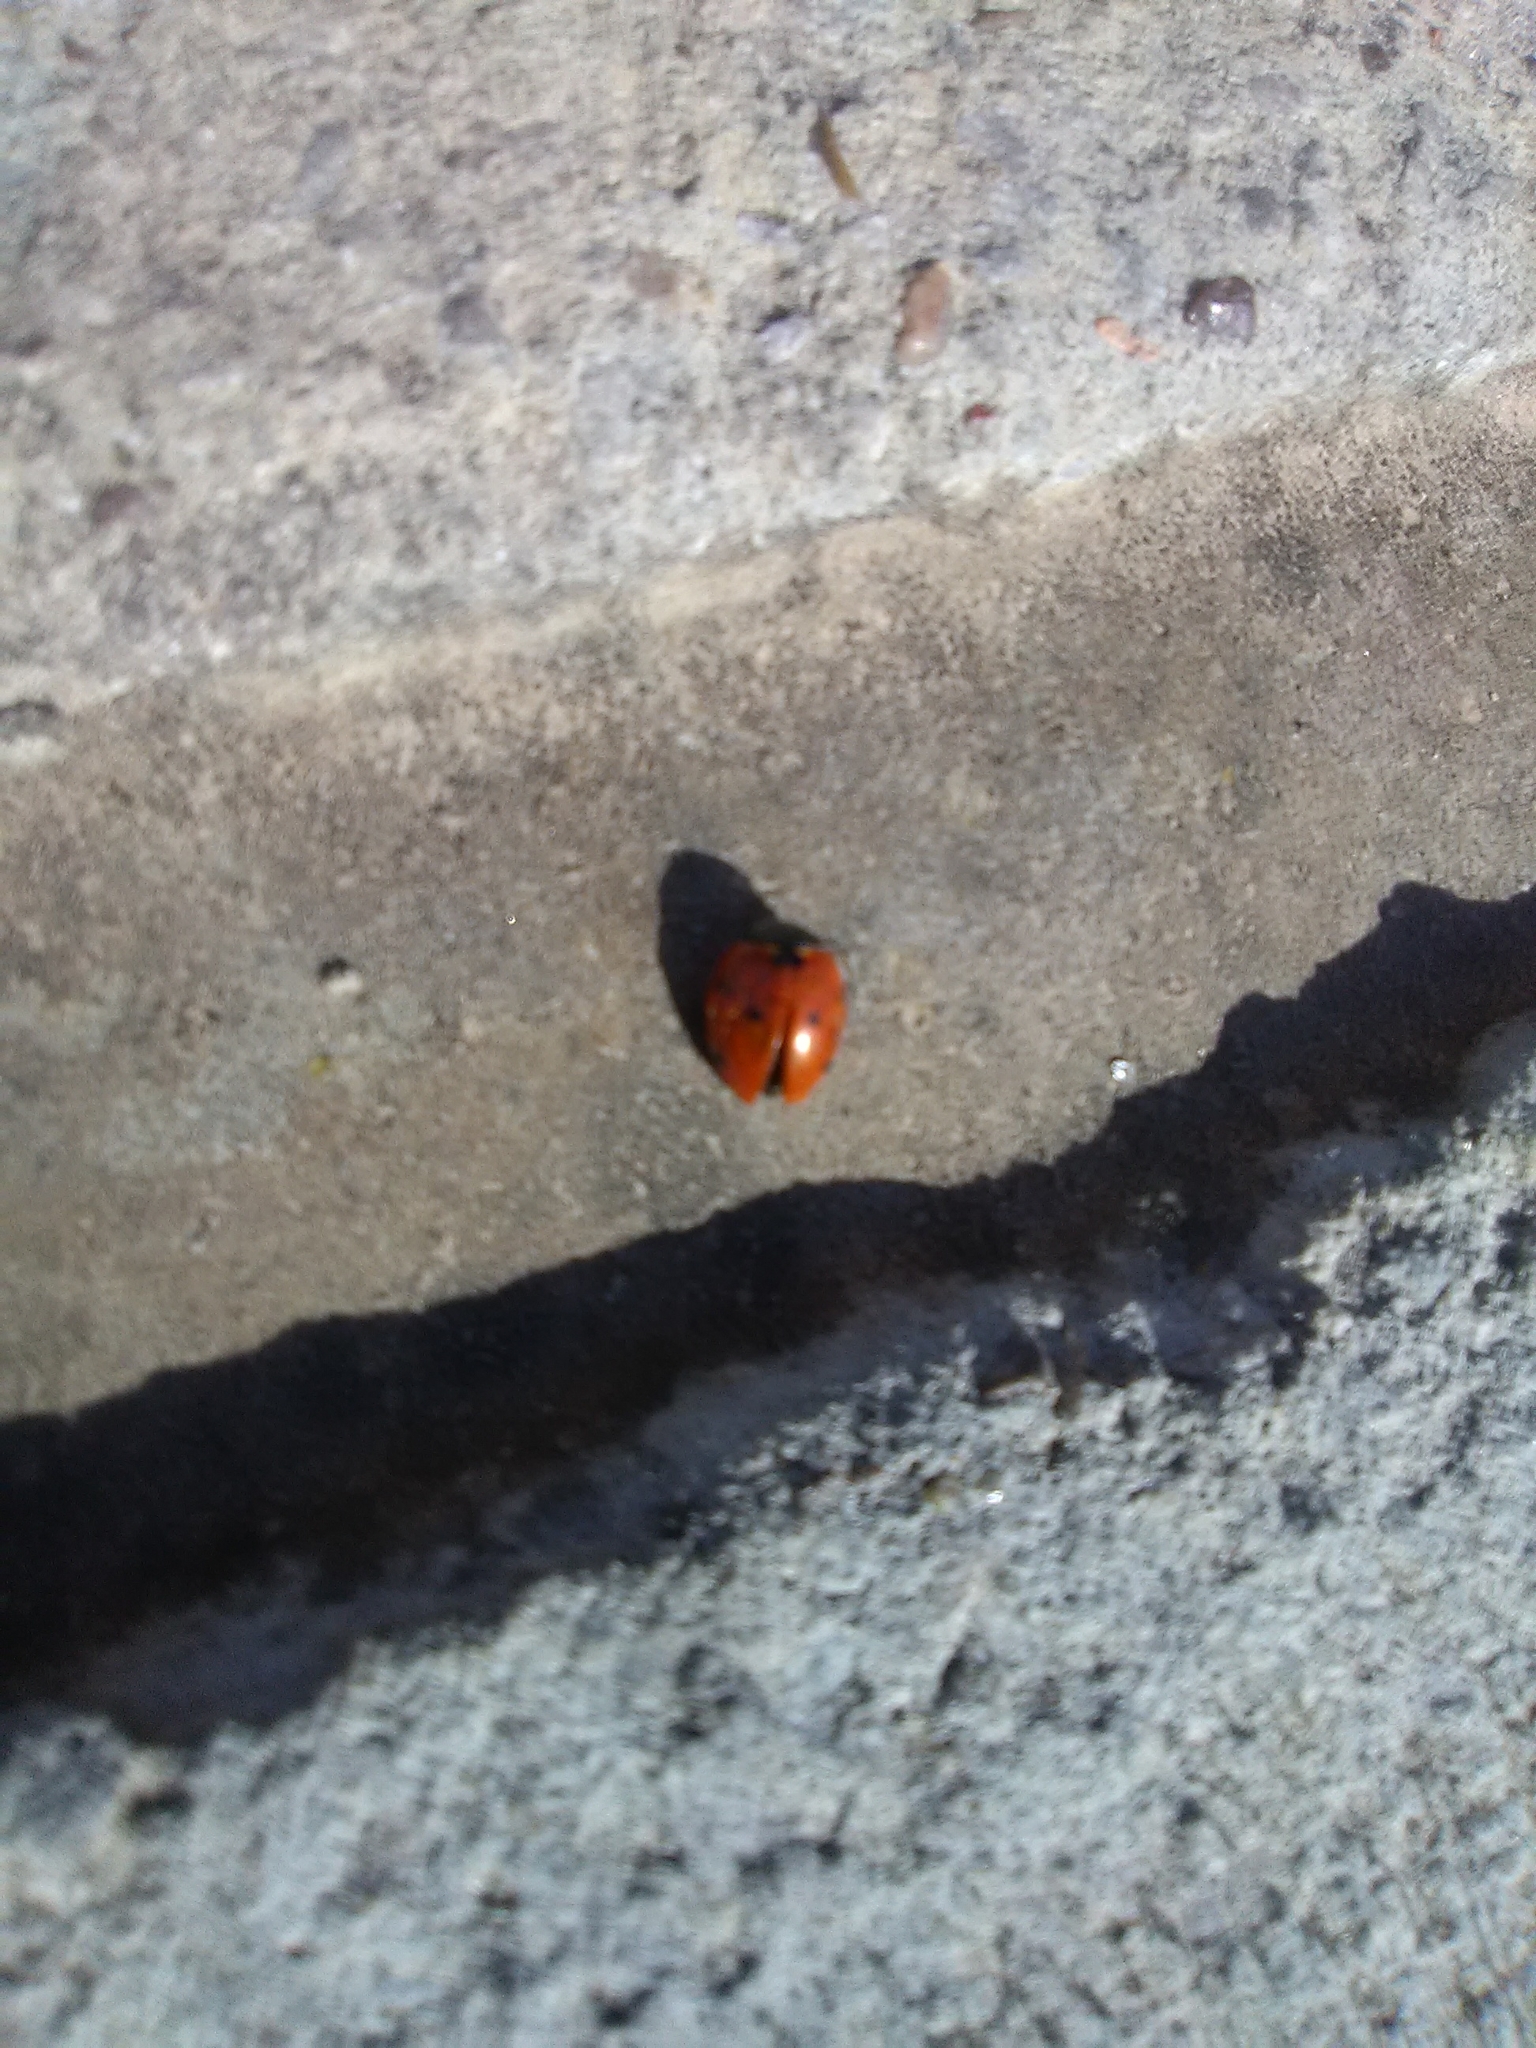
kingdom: Animalia
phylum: Arthropoda
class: Insecta
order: Coleoptera
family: Coccinellidae
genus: Harmonia
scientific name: Harmonia axyridis
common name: Harlequin ladybird
